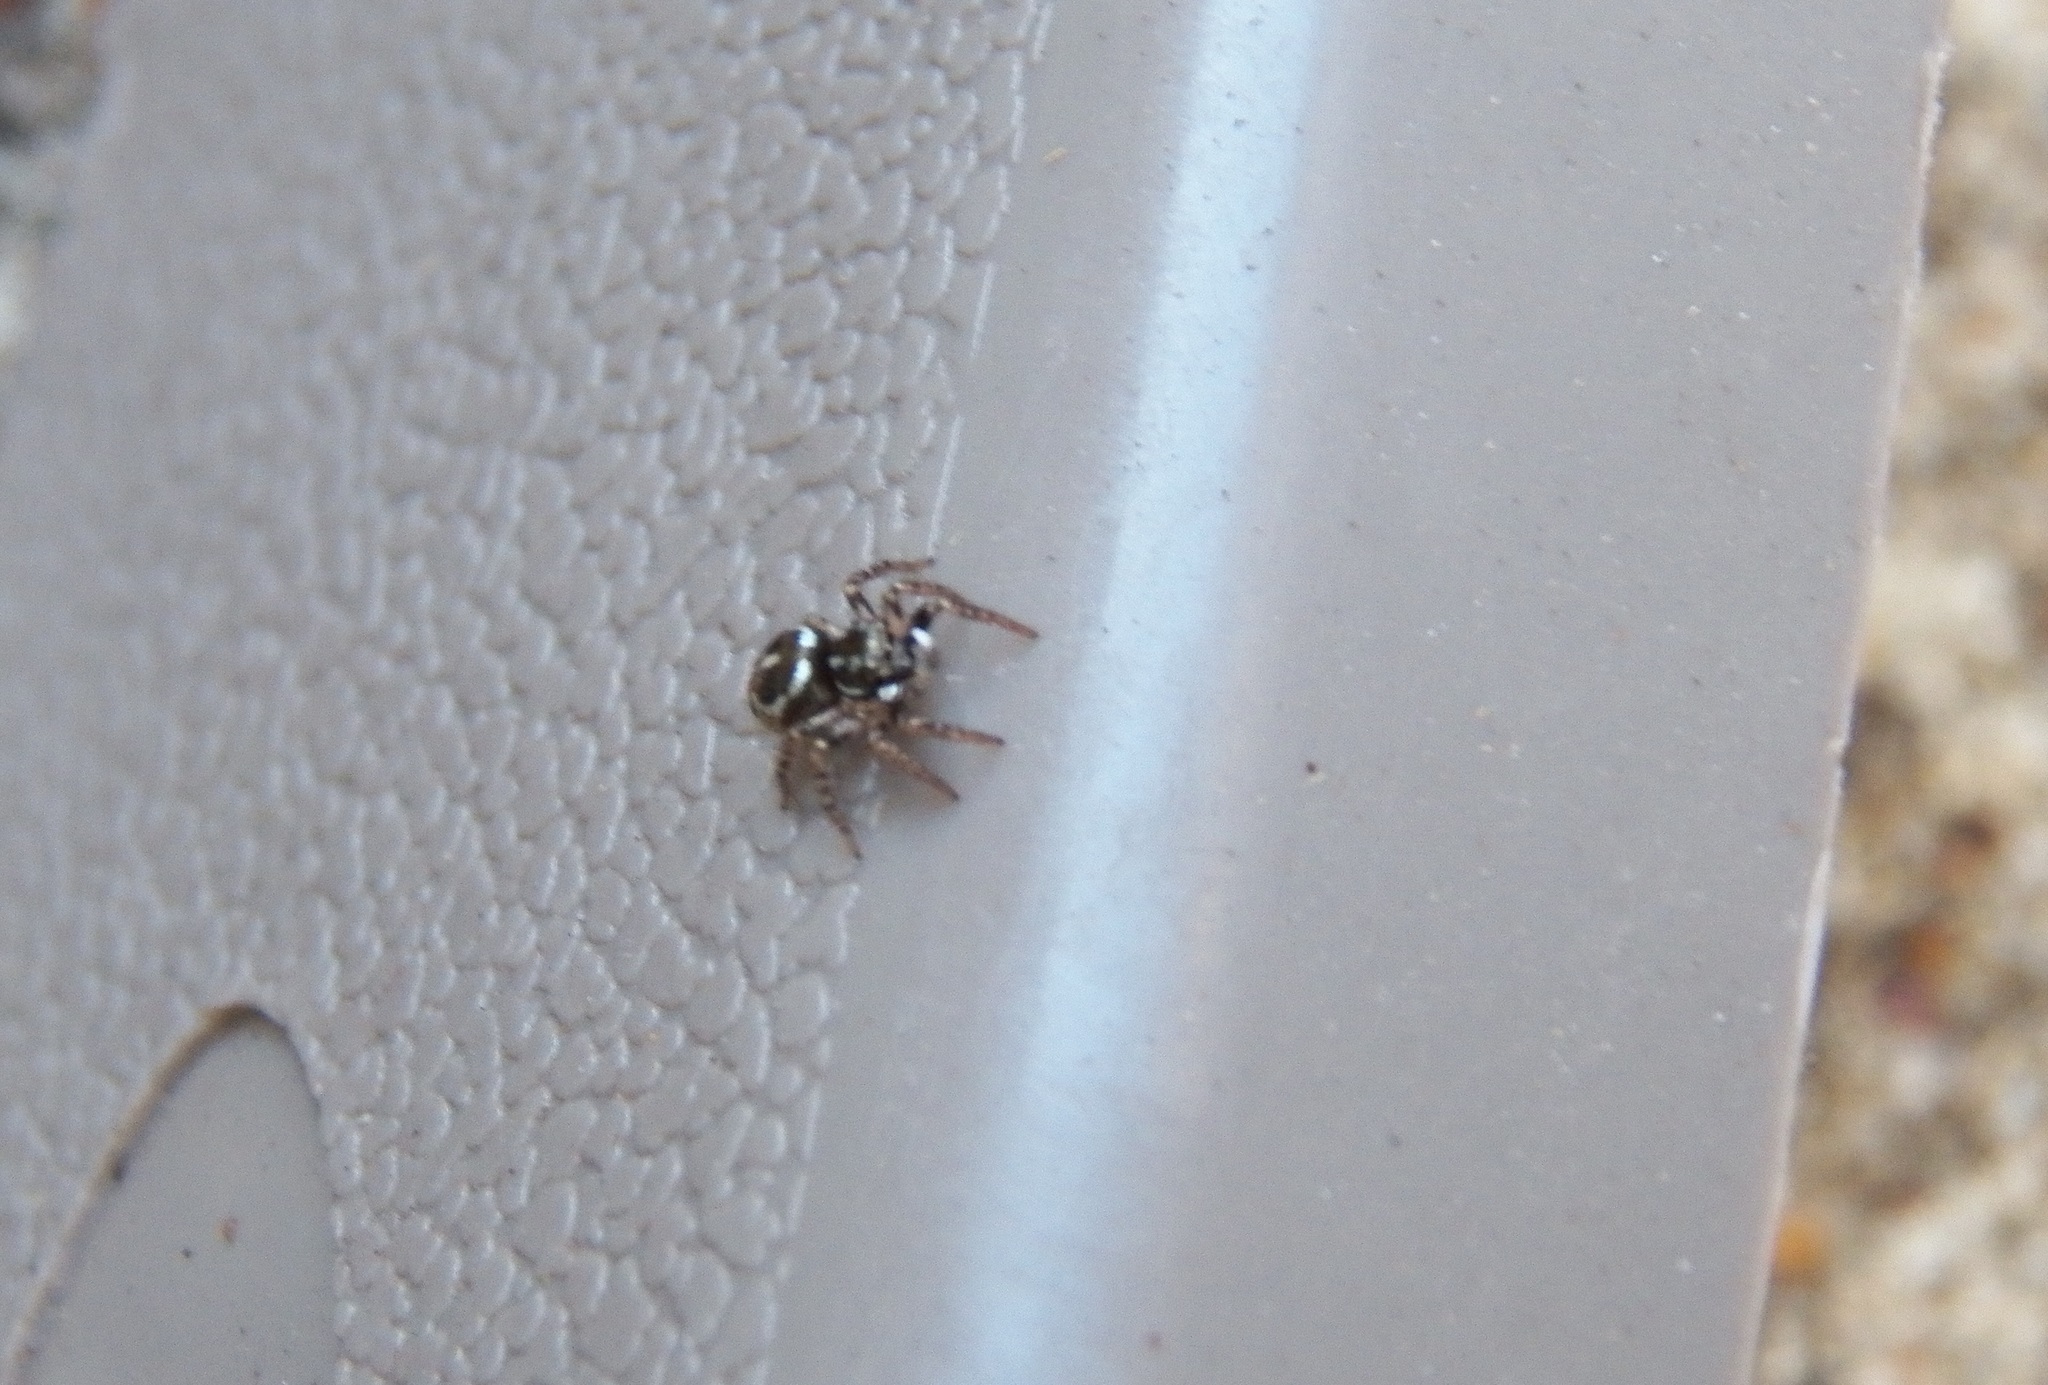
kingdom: Animalia
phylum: Arthropoda
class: Arachnida
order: Araneae
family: Salticidae
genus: Anasaitis
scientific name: Anasaitis canosa
